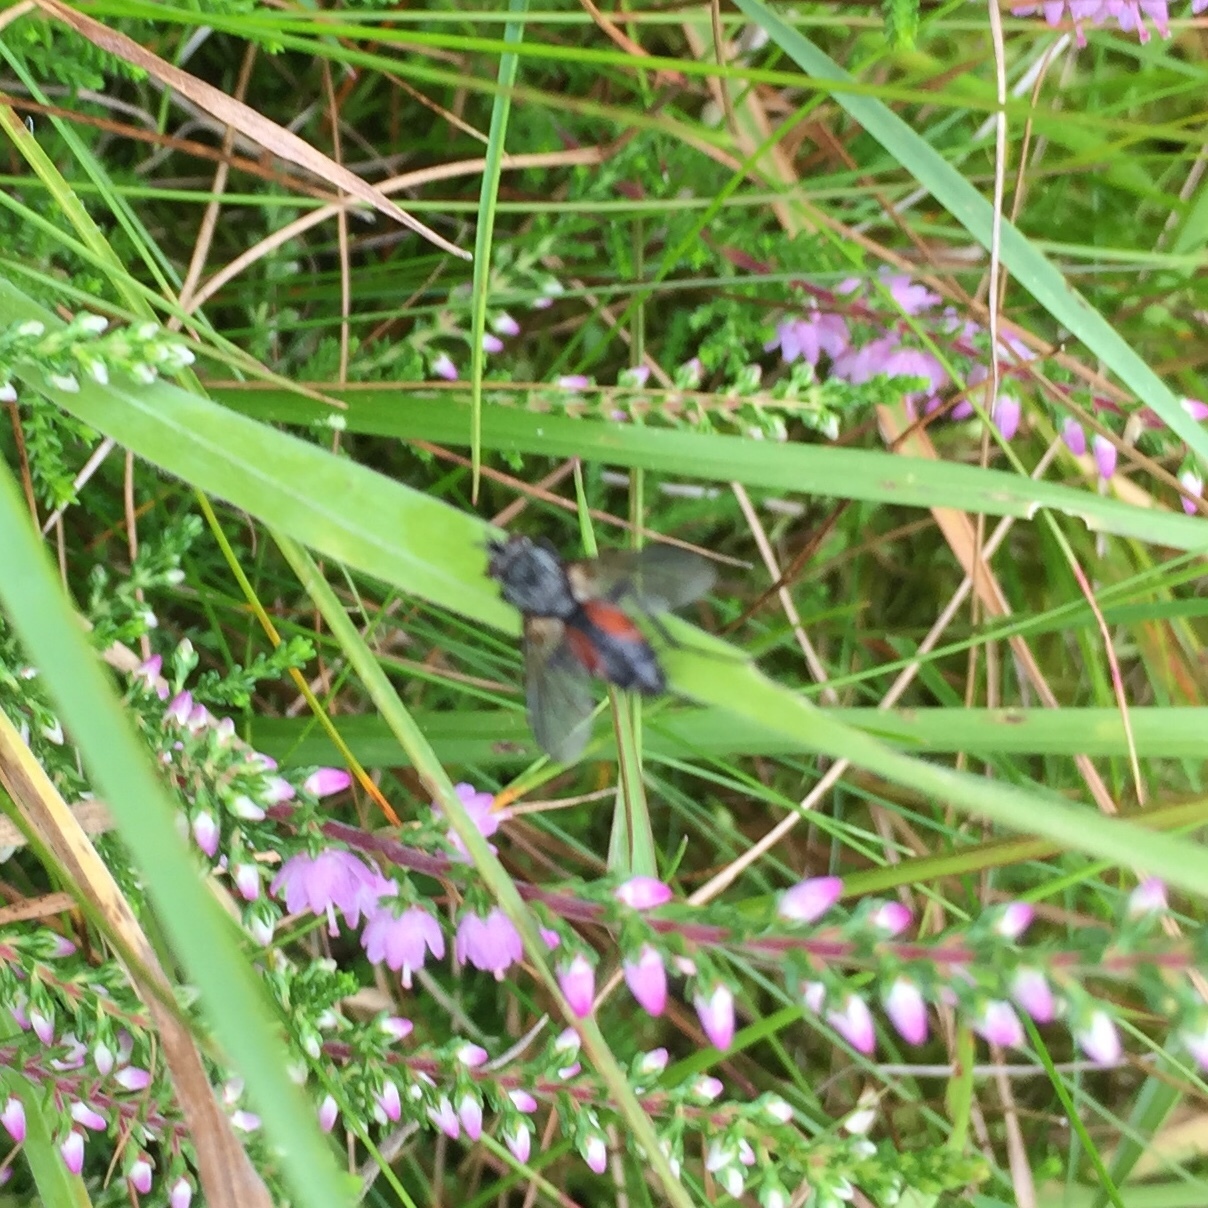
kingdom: Animalia
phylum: Arthropoda
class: Insecta
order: Diptera
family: Tachinidae
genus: Eriothrix
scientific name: Eriothrix rufomaculatus
